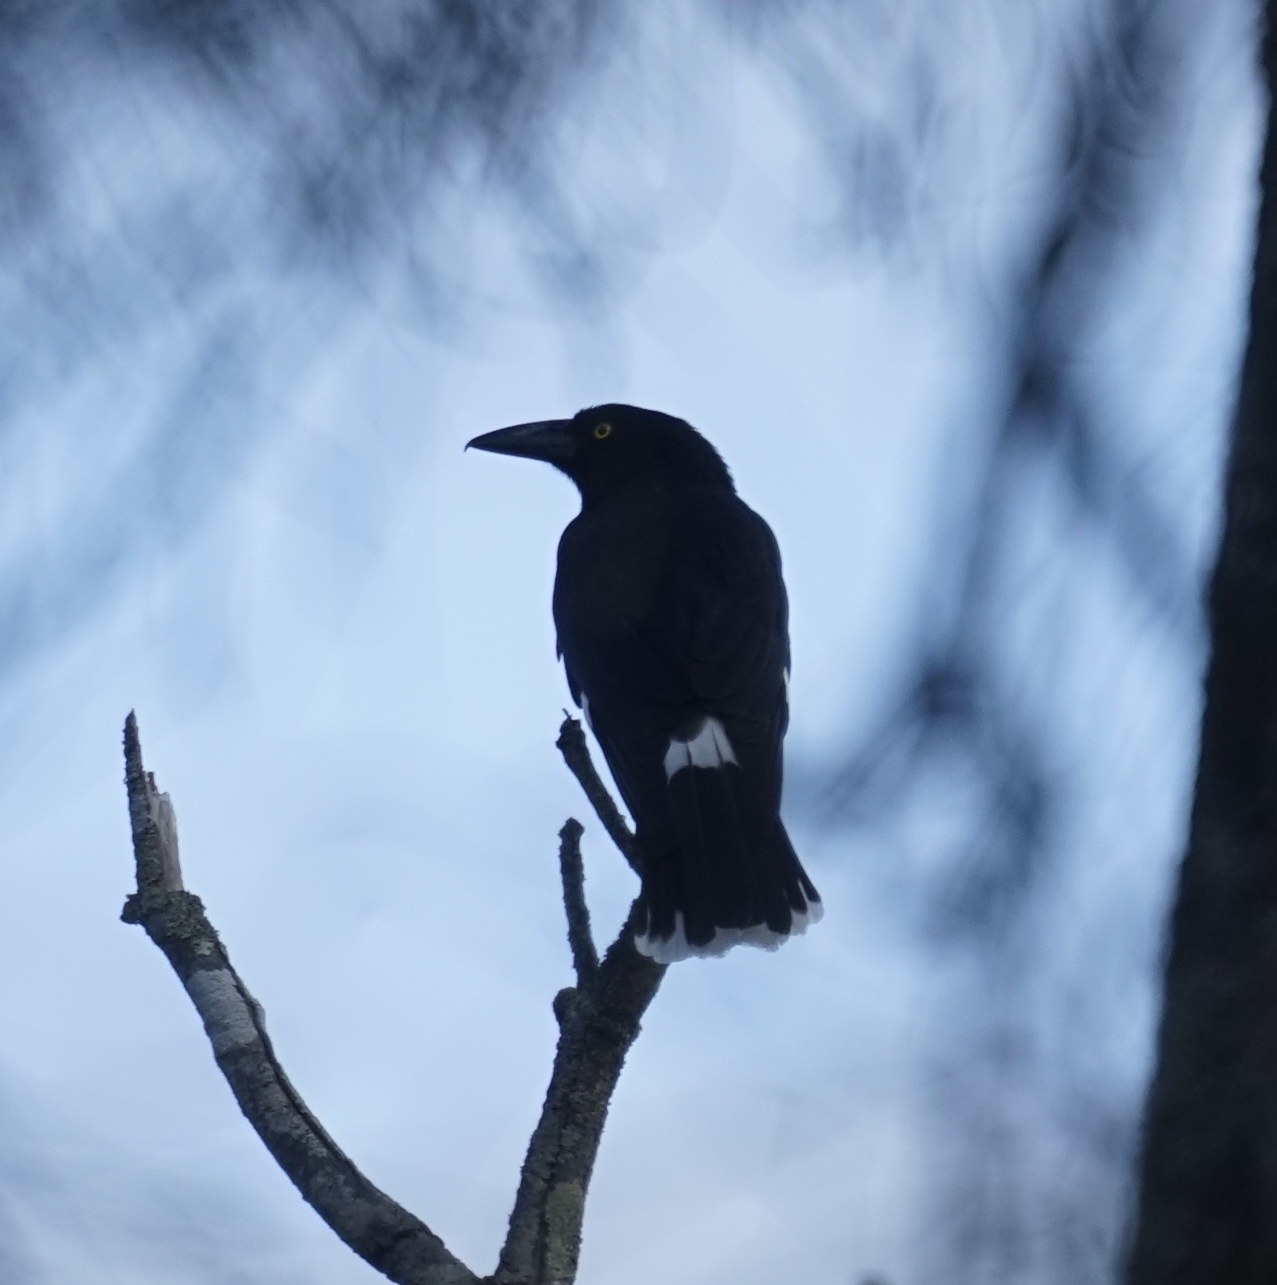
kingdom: Animalia
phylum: Chordata
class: Aves
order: Passeriformes
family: Cracticidae
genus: Strepera
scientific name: Strepera graculina
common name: Pied currawong
